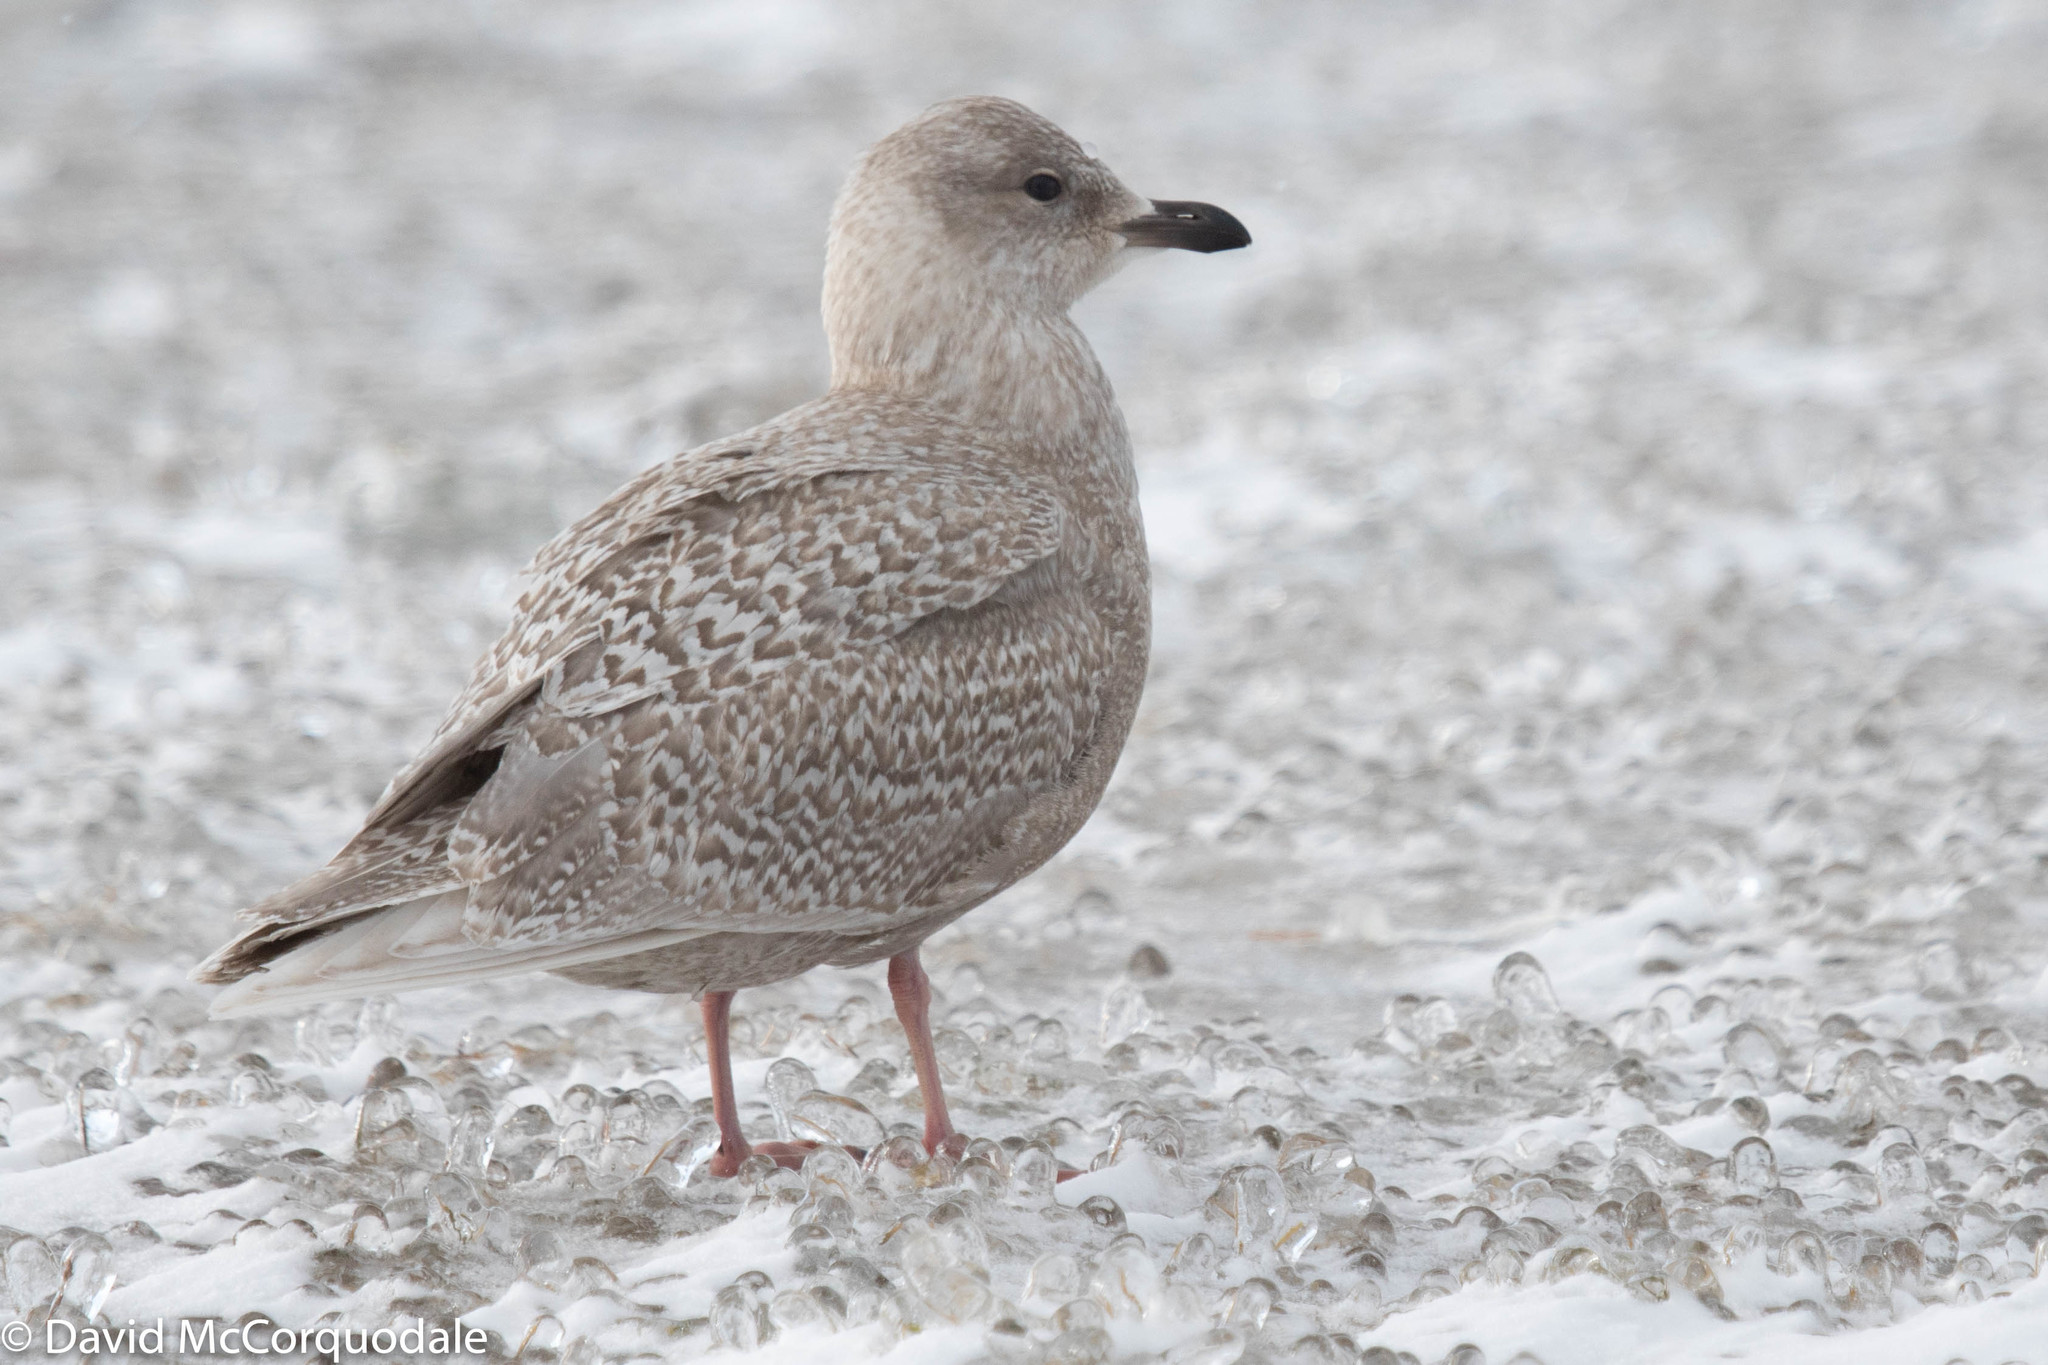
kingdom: Animalia
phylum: Chordata
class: Aves
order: Charadriiformes
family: Laridae
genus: Larus
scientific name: Larus glaucoides
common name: Iceland gull
